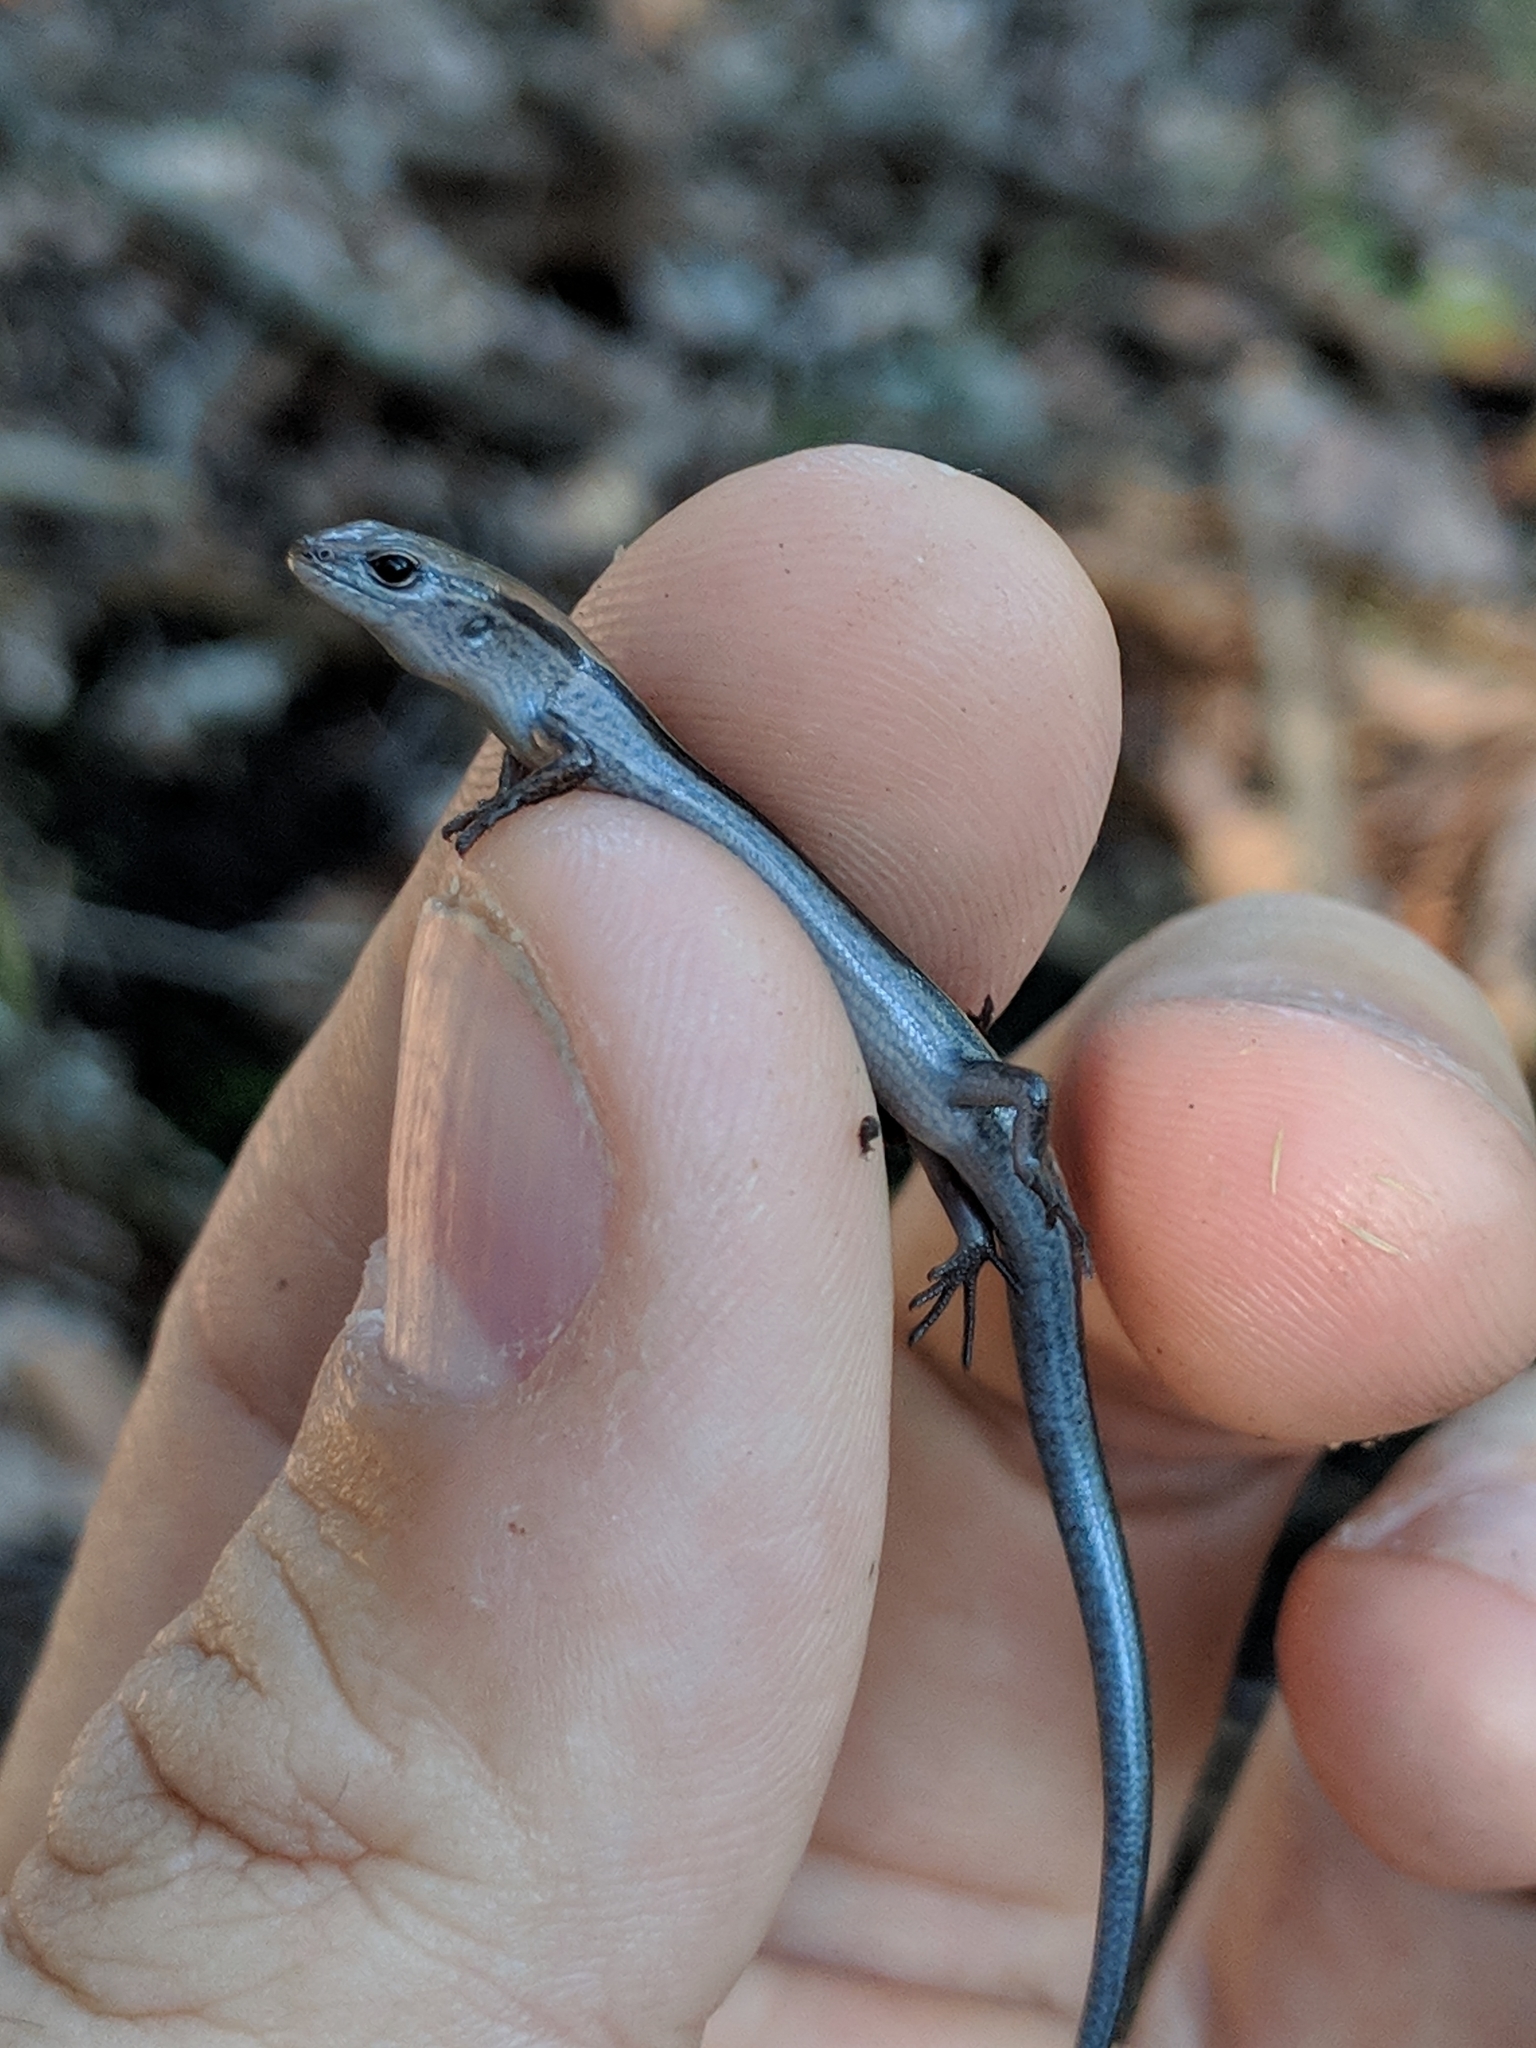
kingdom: Animalia
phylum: Chordata
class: Squamata
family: Scincidae
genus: Scincella
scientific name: Scincella lateralis
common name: Ground skink
